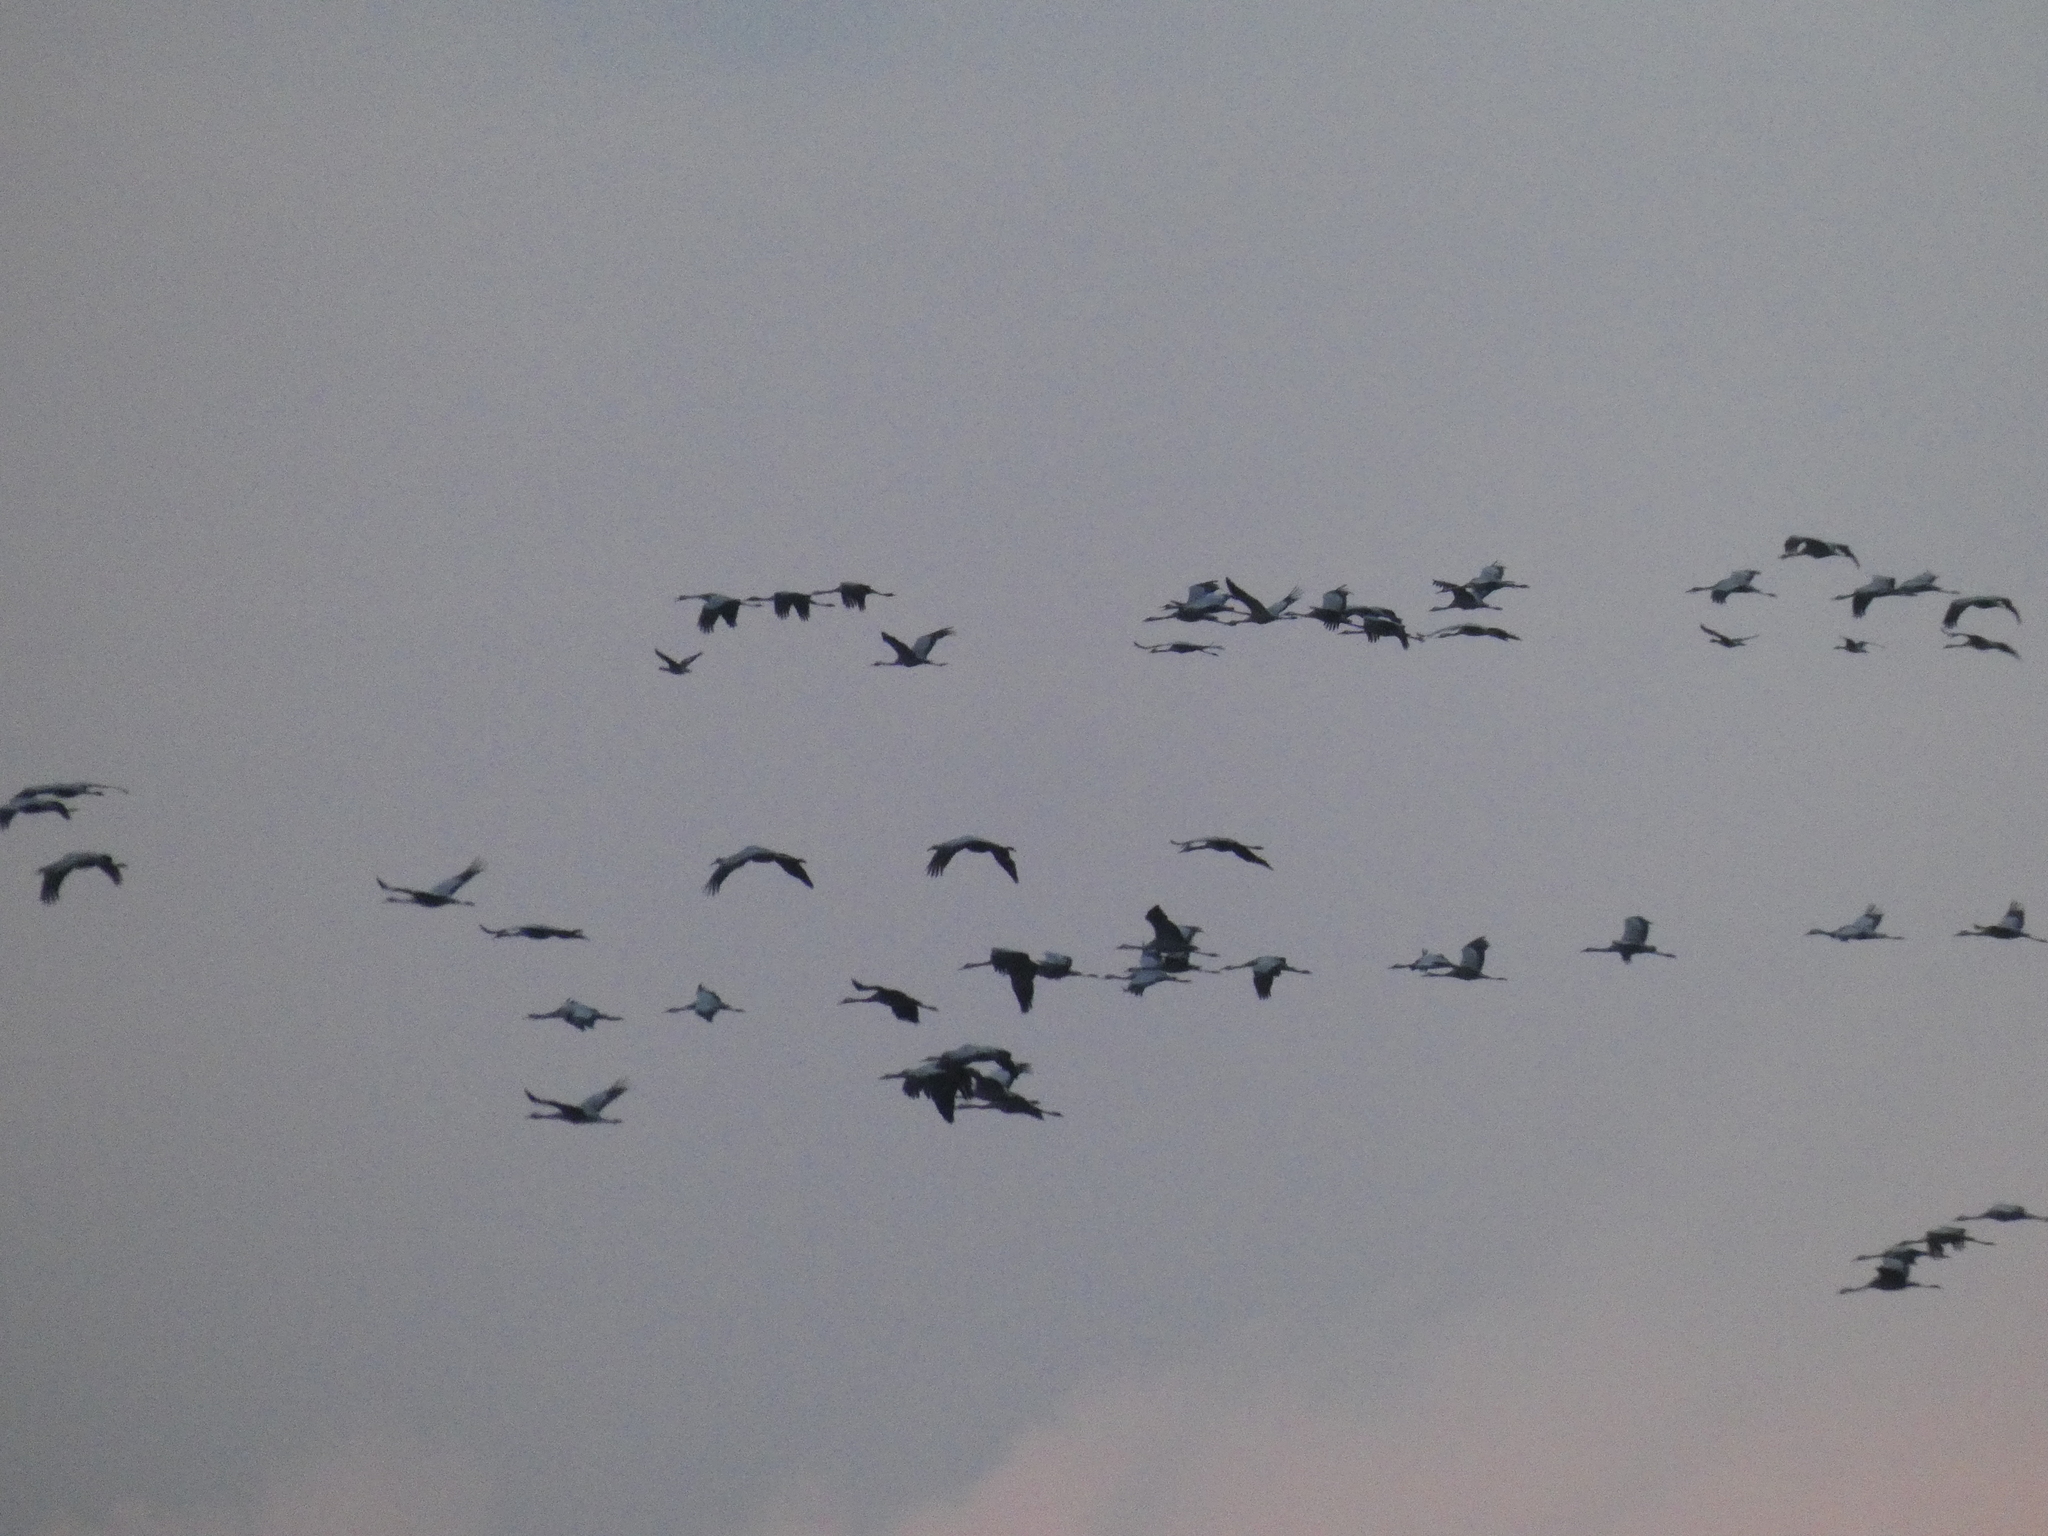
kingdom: Animalia
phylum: Chordata
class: Aves
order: Gruiformes
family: Gruidae
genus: Grus
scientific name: Grus grus
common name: Common crane
